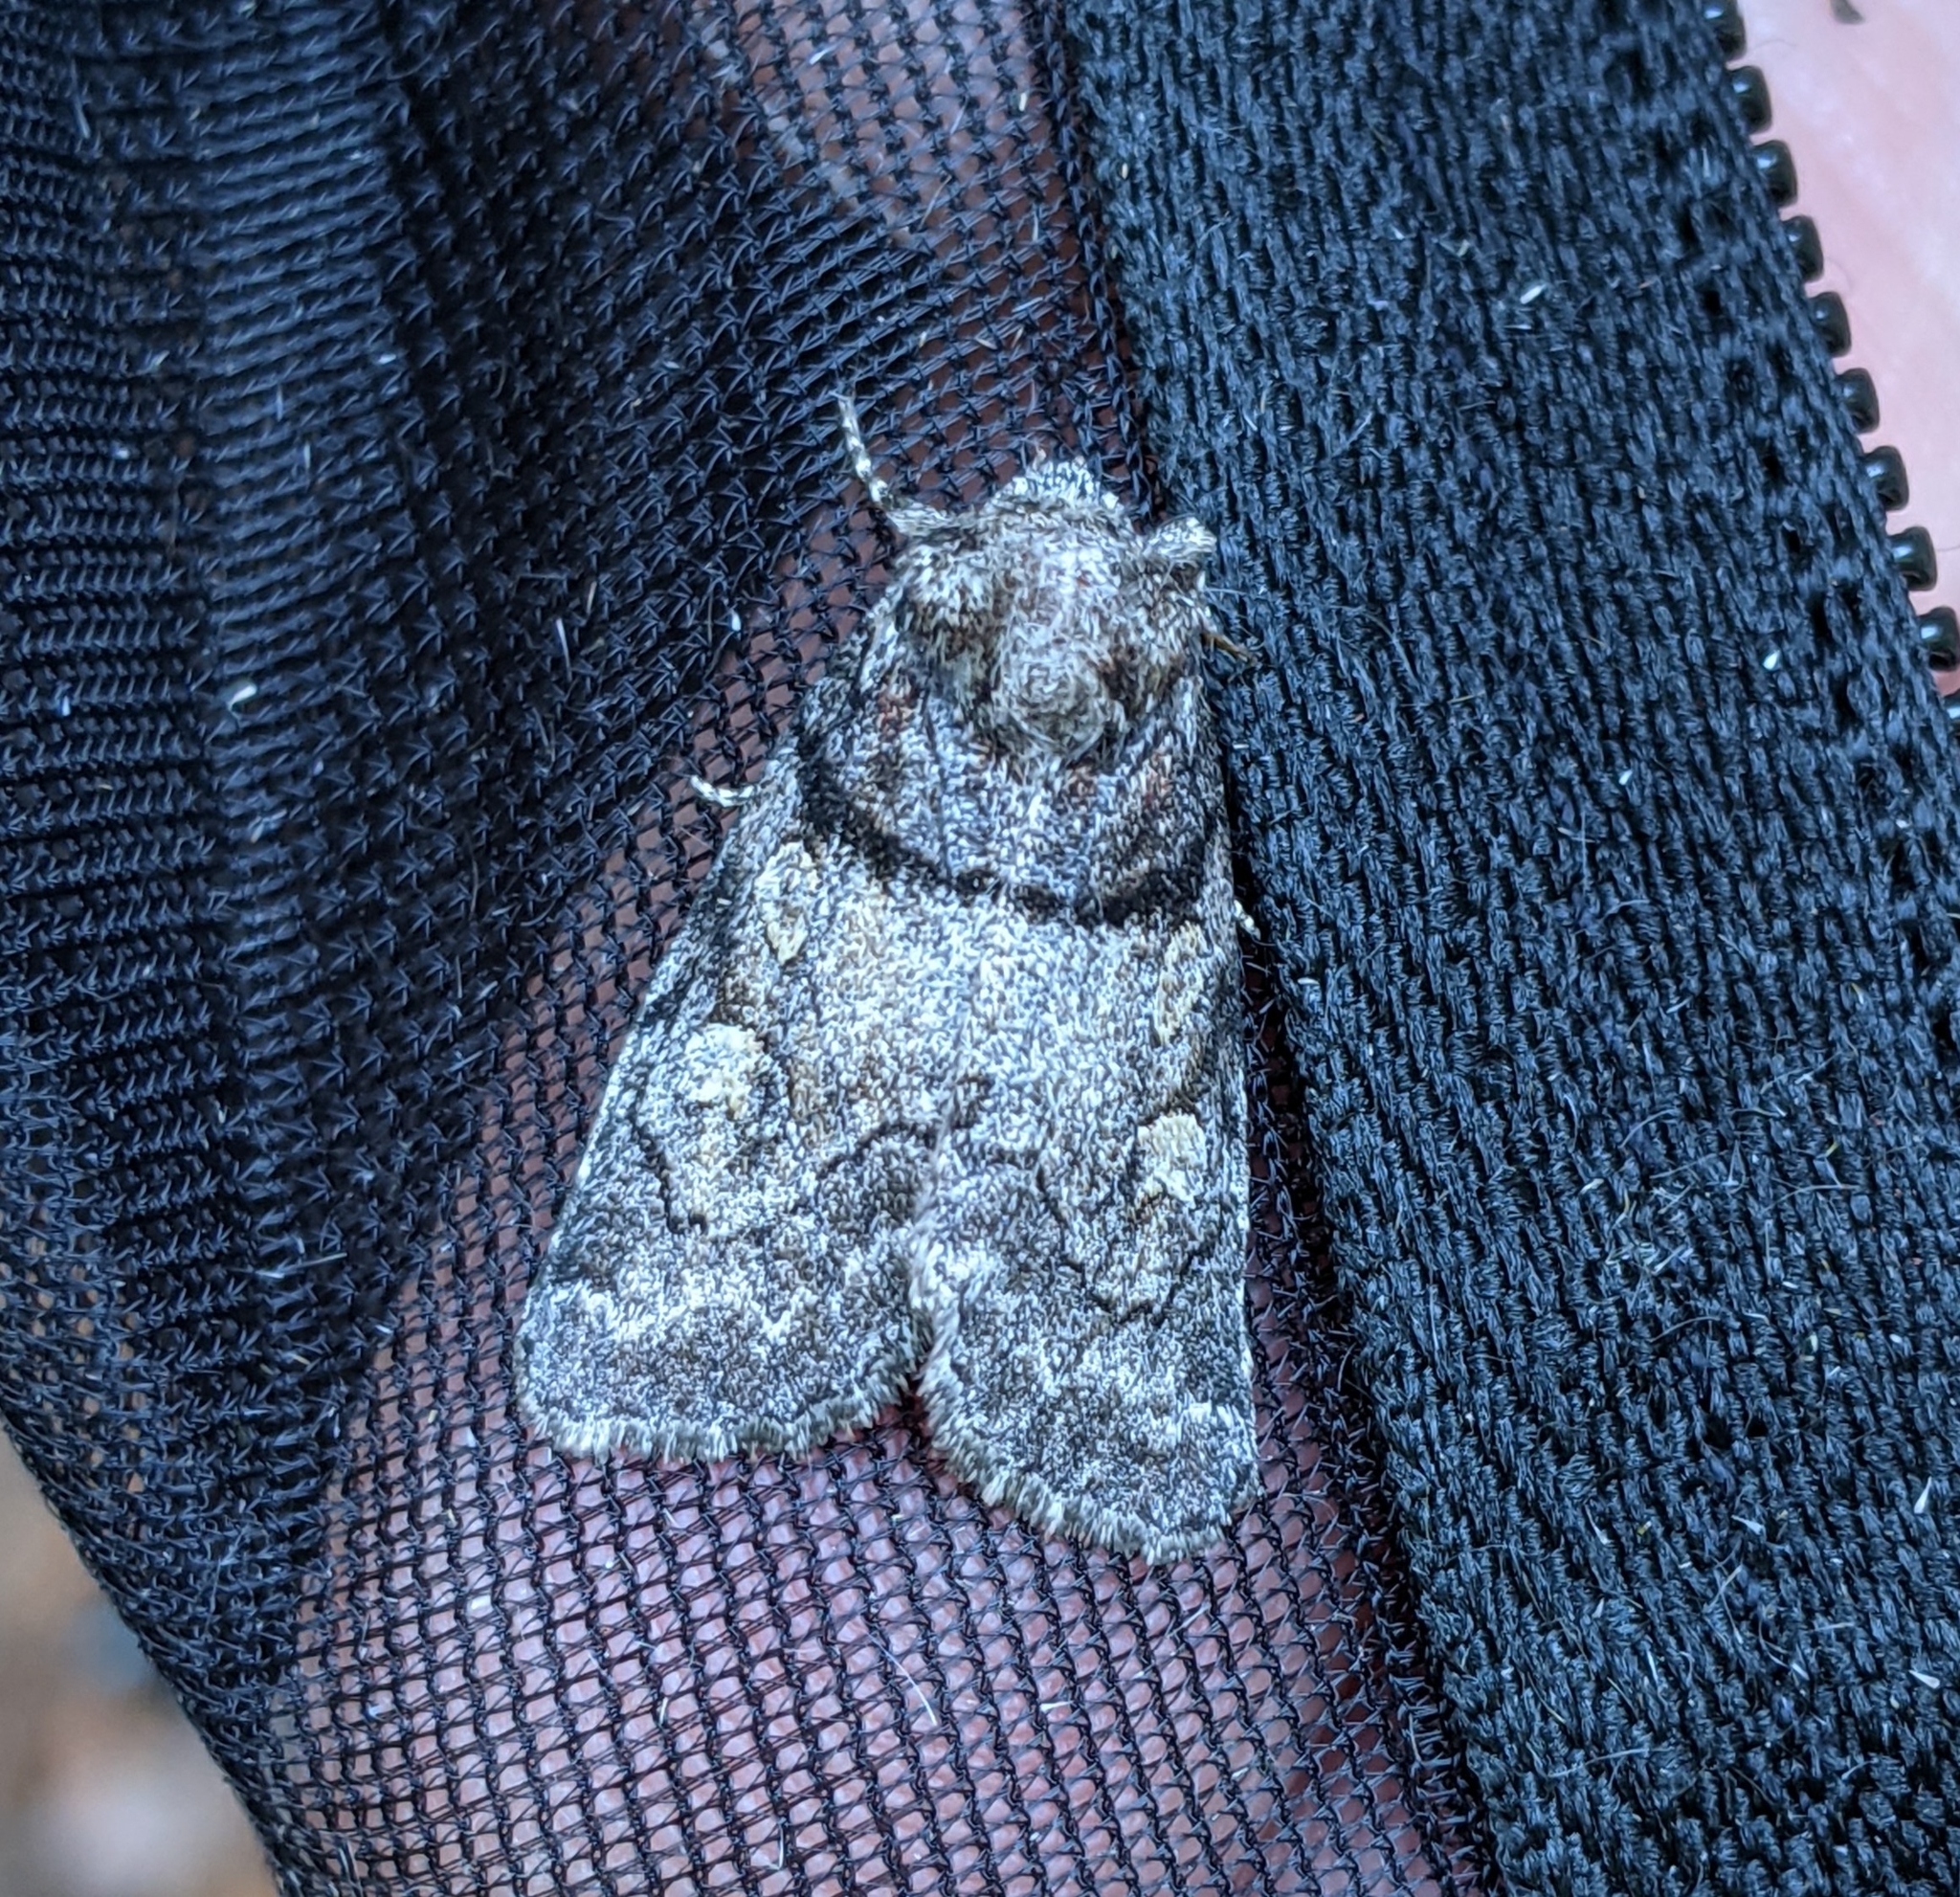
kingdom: Animalia
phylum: Arthropoda
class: Insecta
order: Lepidoptera
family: Noctuidae
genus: Cosmia
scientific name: Cosmia praeacuta
